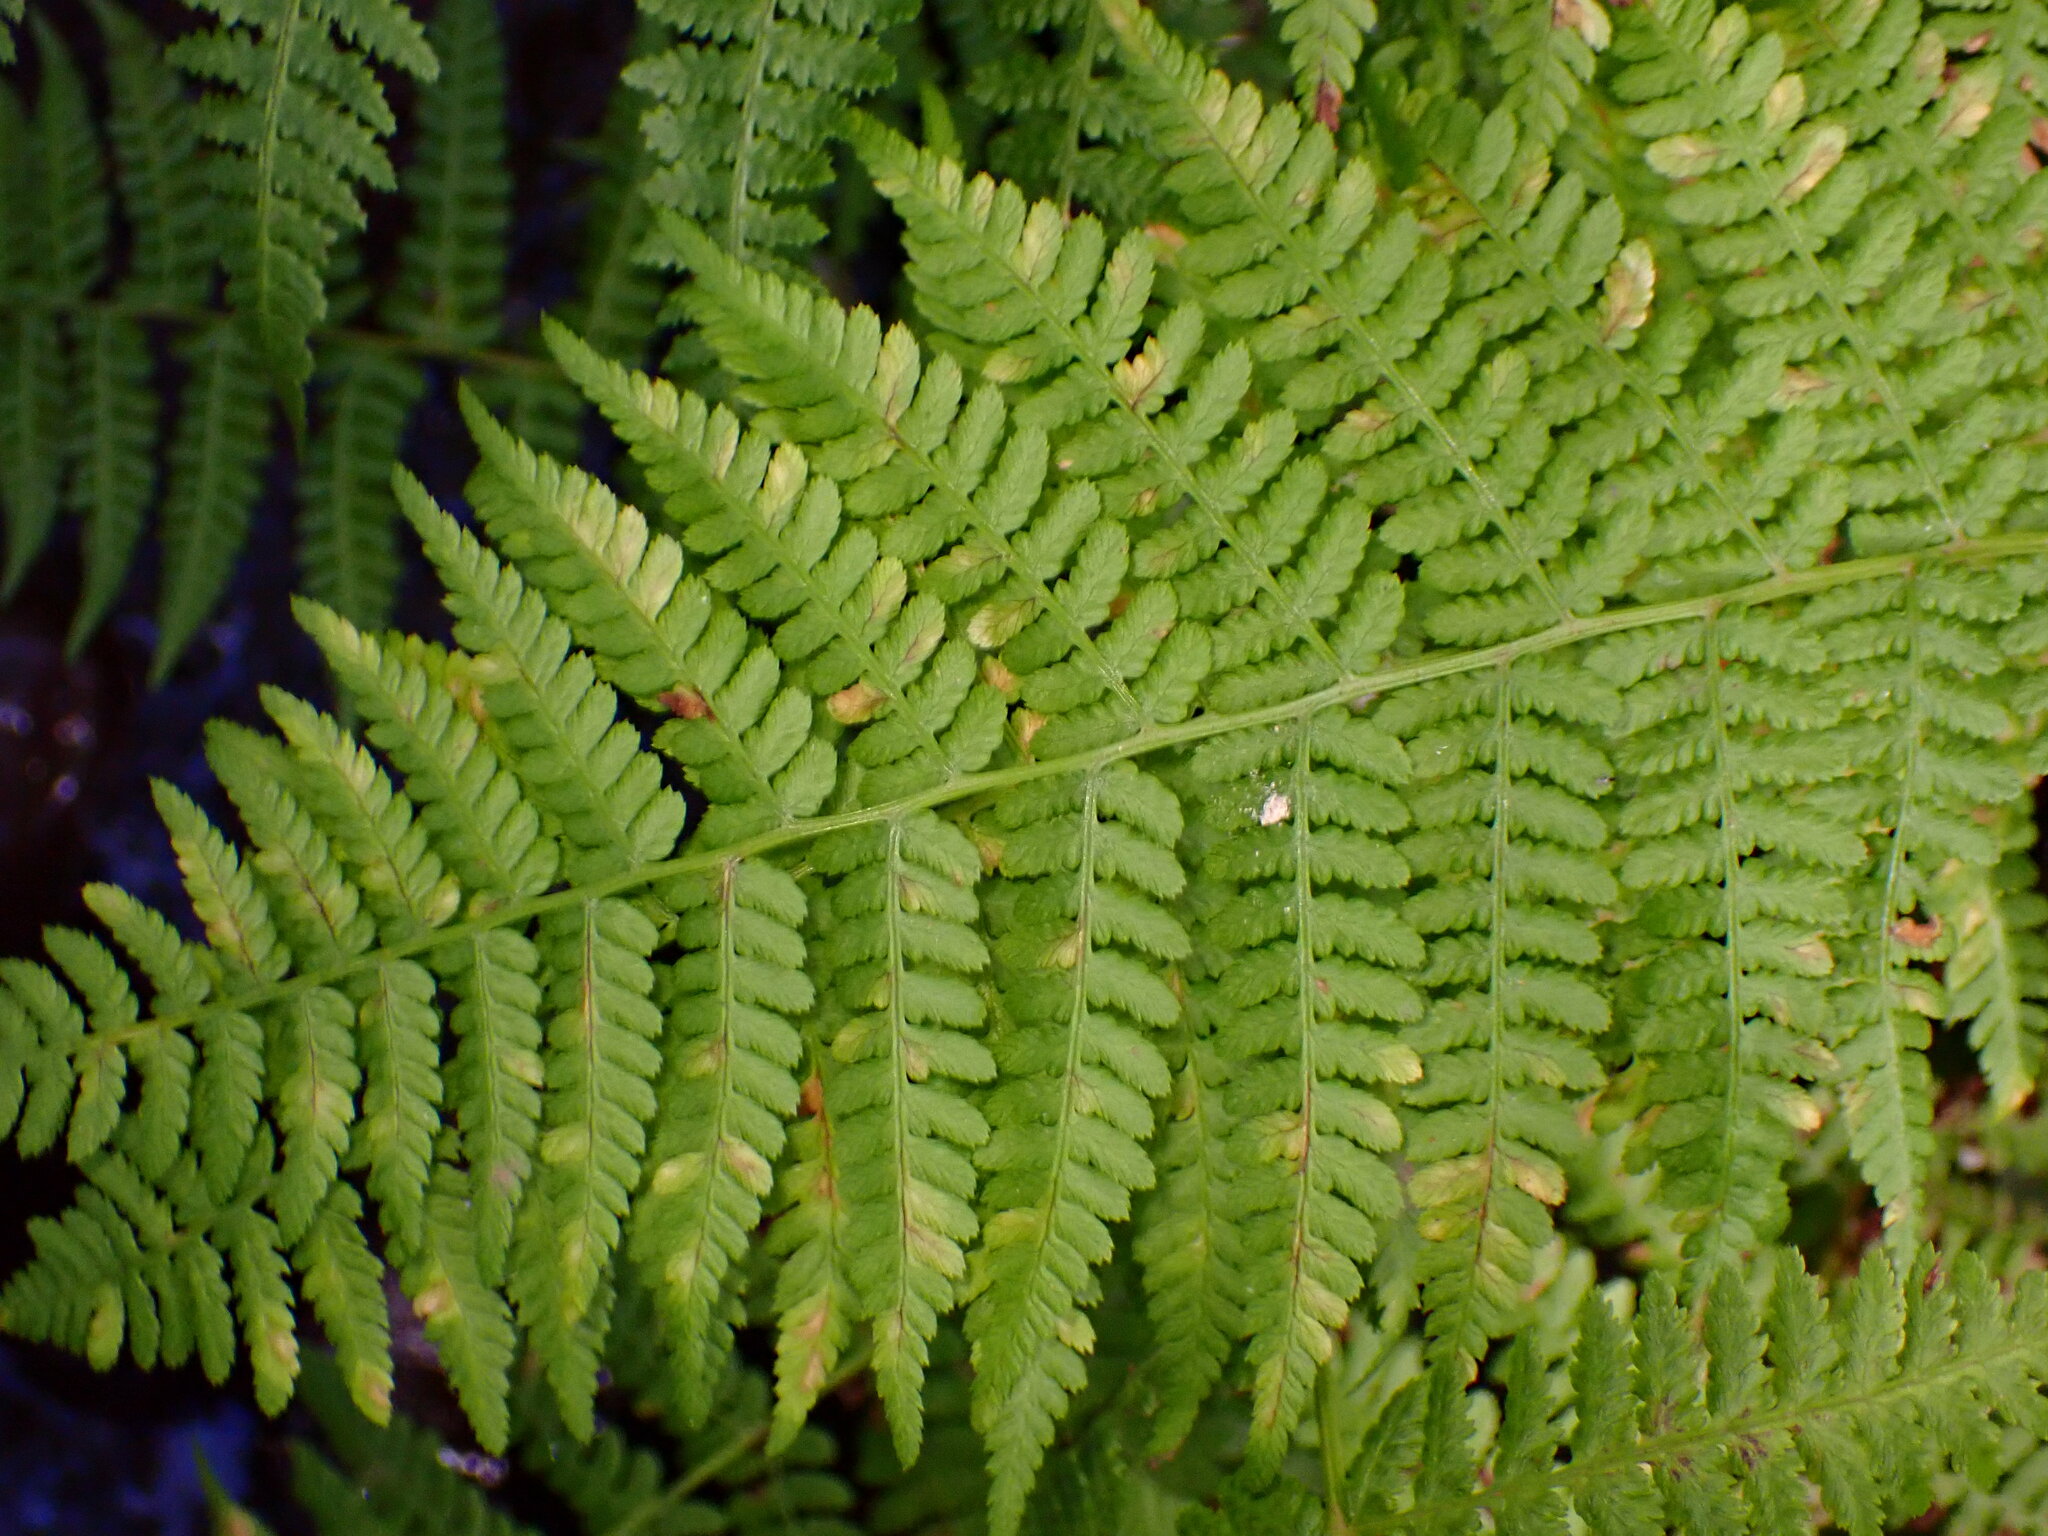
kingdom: Plantae
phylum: Tracheophyta
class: Polypodiopsida
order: Polypodiales
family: Athyriaceae
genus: Athyrium
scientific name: Athyrium filix-femina
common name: Lady fern
